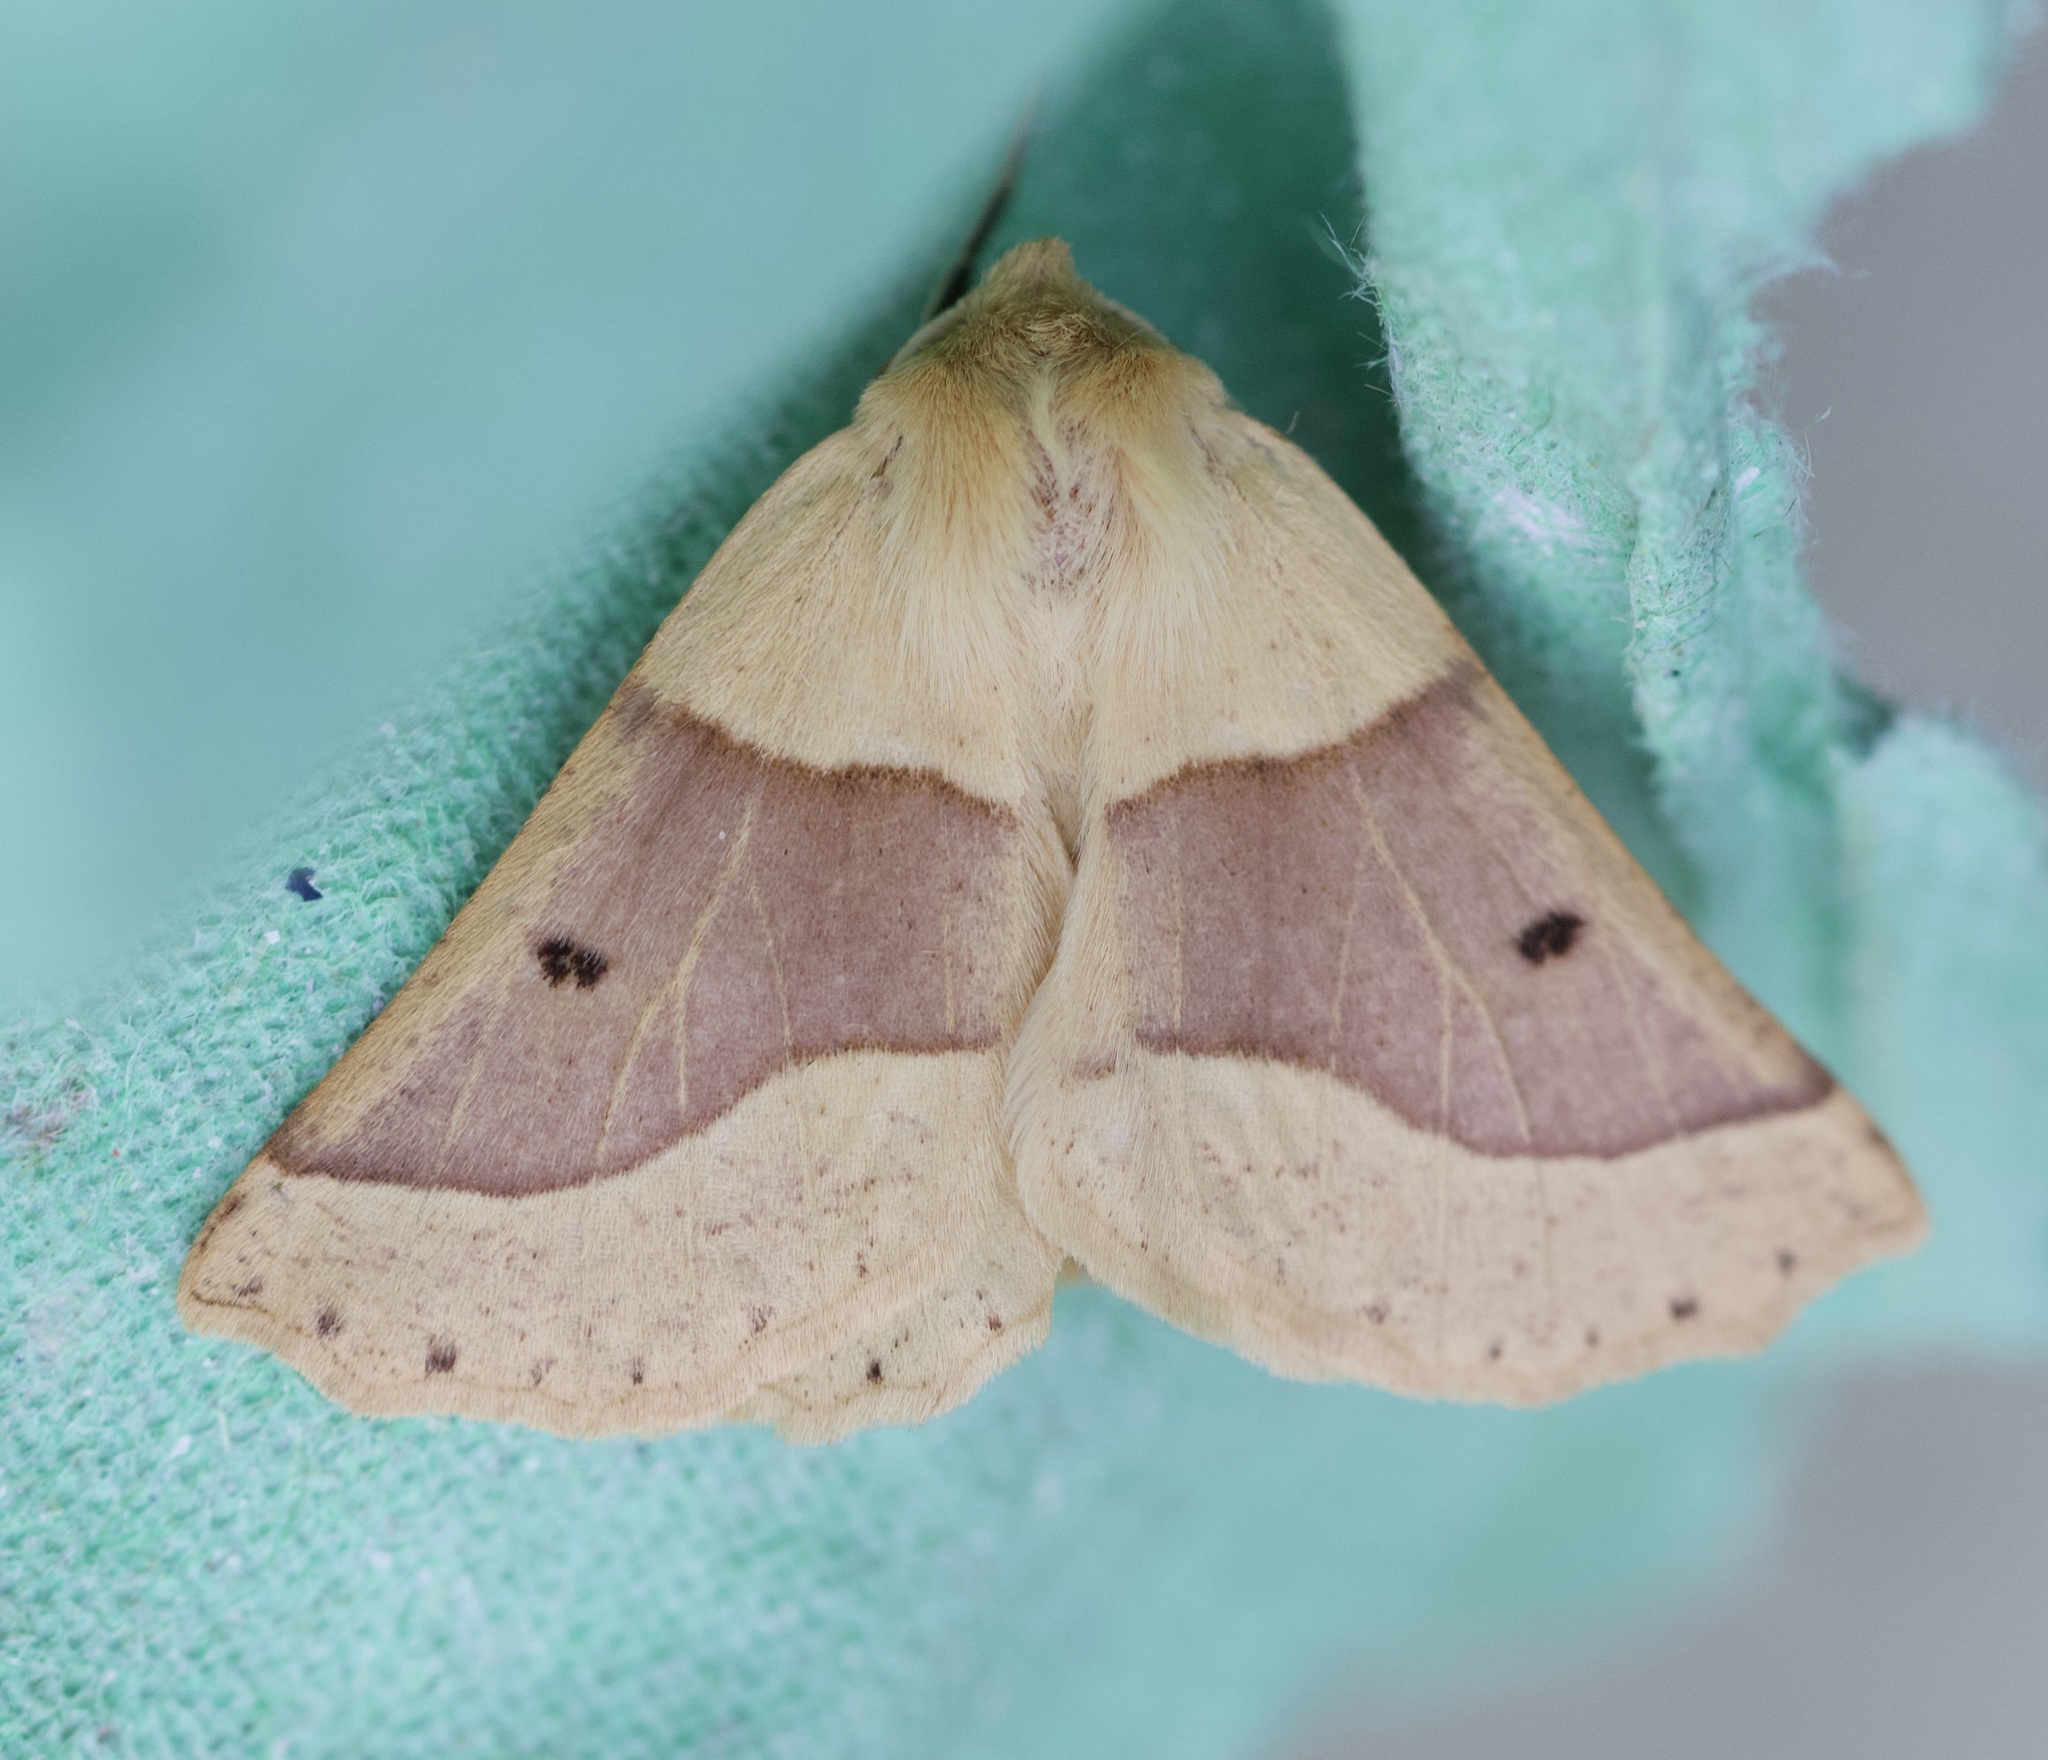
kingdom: Animalia
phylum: Arthropoda
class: Insecta
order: Lepidoptera
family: Geometridae
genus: Crocallis
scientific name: Crocallis elinguaria
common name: Scalloped oak
